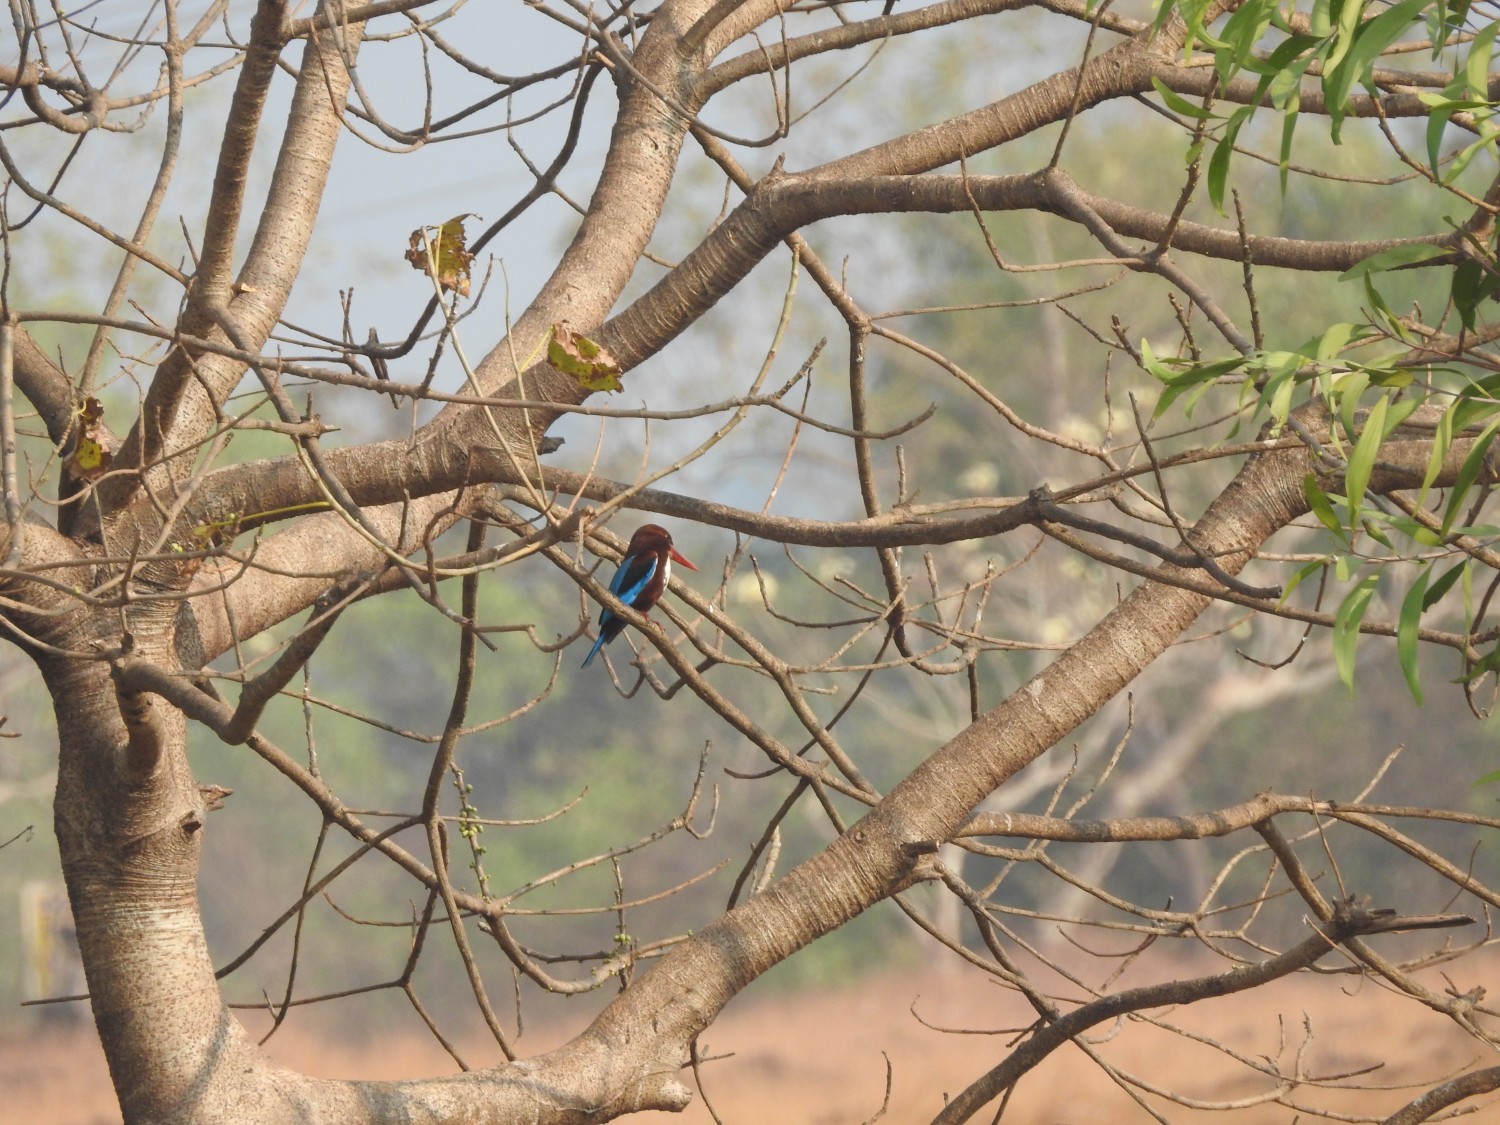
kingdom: Animalia
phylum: Chordata
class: Aves
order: Coraciiformes
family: Alcedinidae
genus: Halcyon
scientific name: Halcyon smyrnensis
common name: White-throated kingfisher
